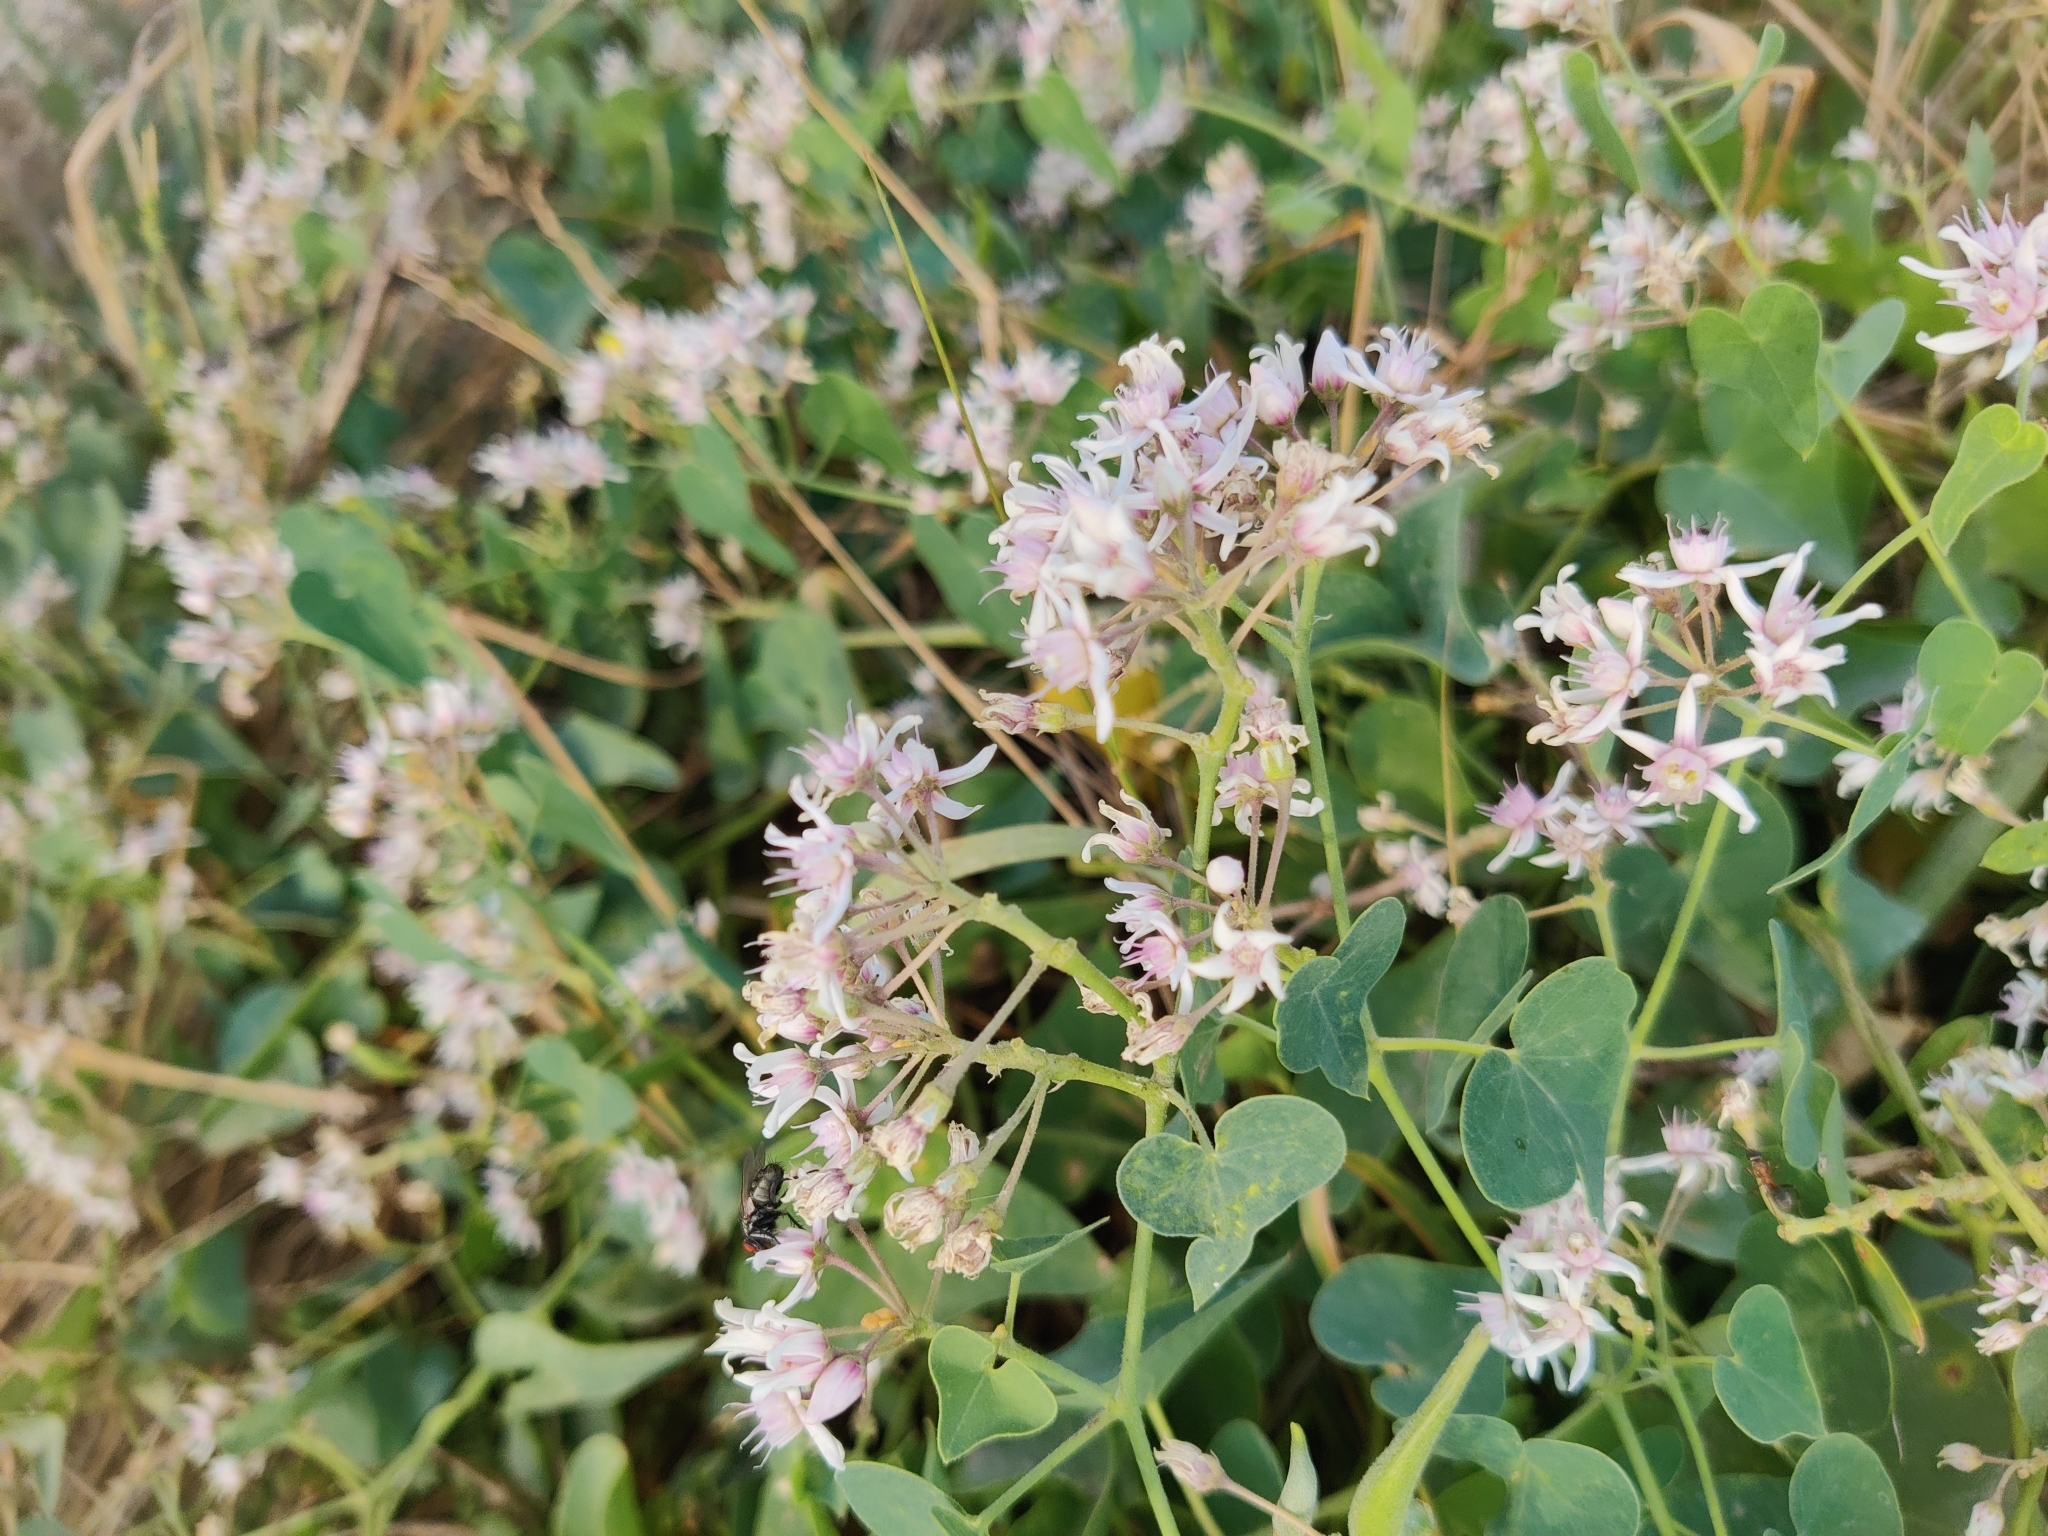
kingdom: Plantae
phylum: Tracheophyta
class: Magnoliopsida
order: Gentianales
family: Apocynaceae
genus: Cynanchum
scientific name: Cynanchum acutum
